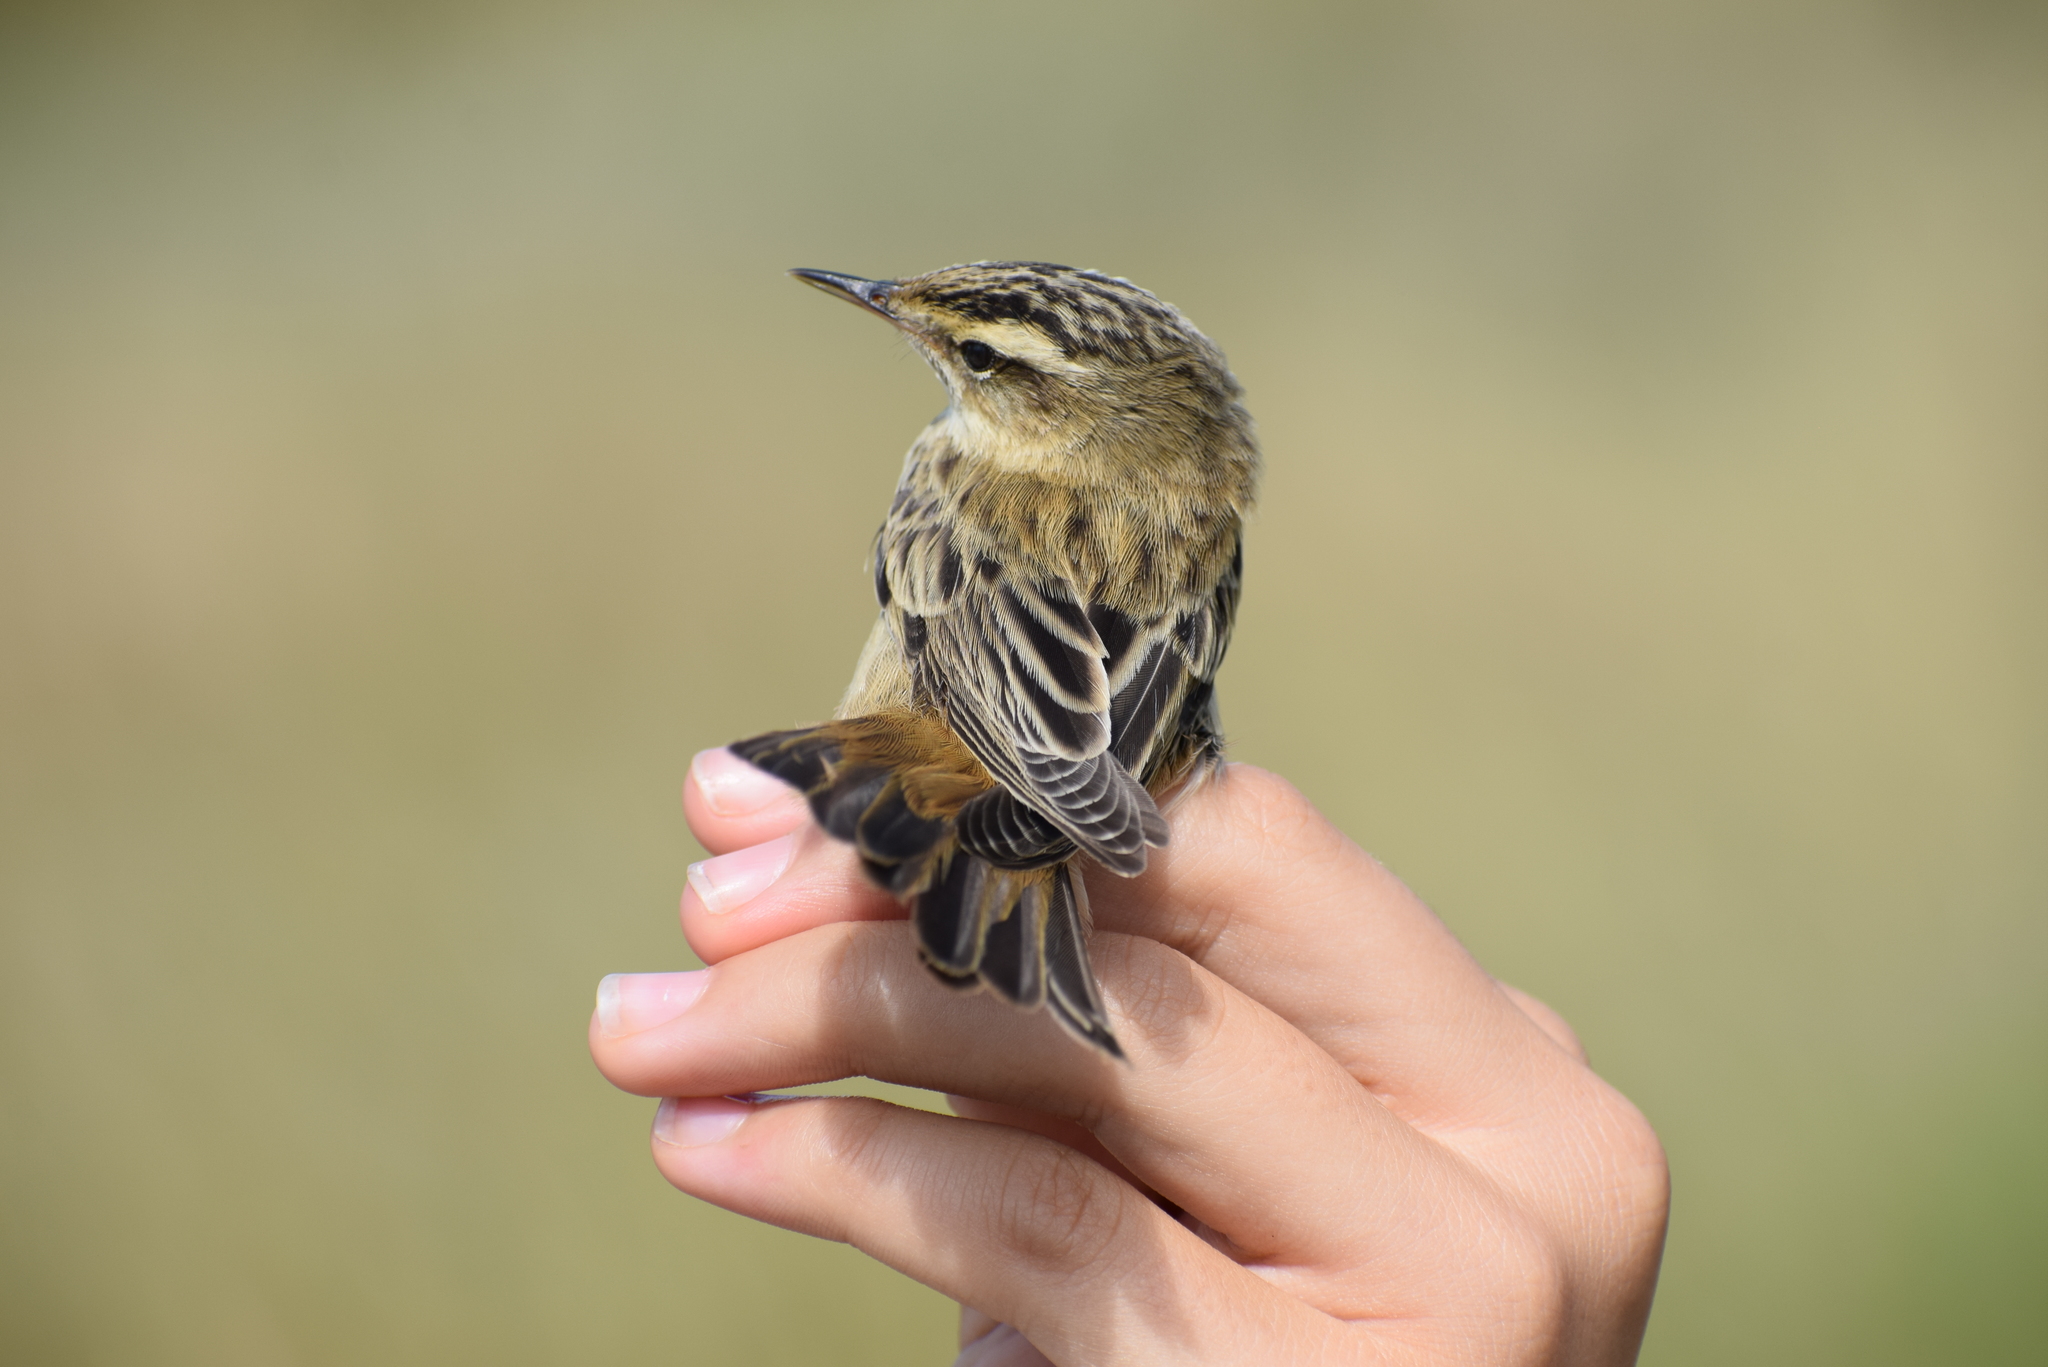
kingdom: Animalia
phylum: Chordata
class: Aves
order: Passeriformes
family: Acrocephalidae
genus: Acrocephalus
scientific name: Acrocephalus schoenobaenus
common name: Sedge warbler
